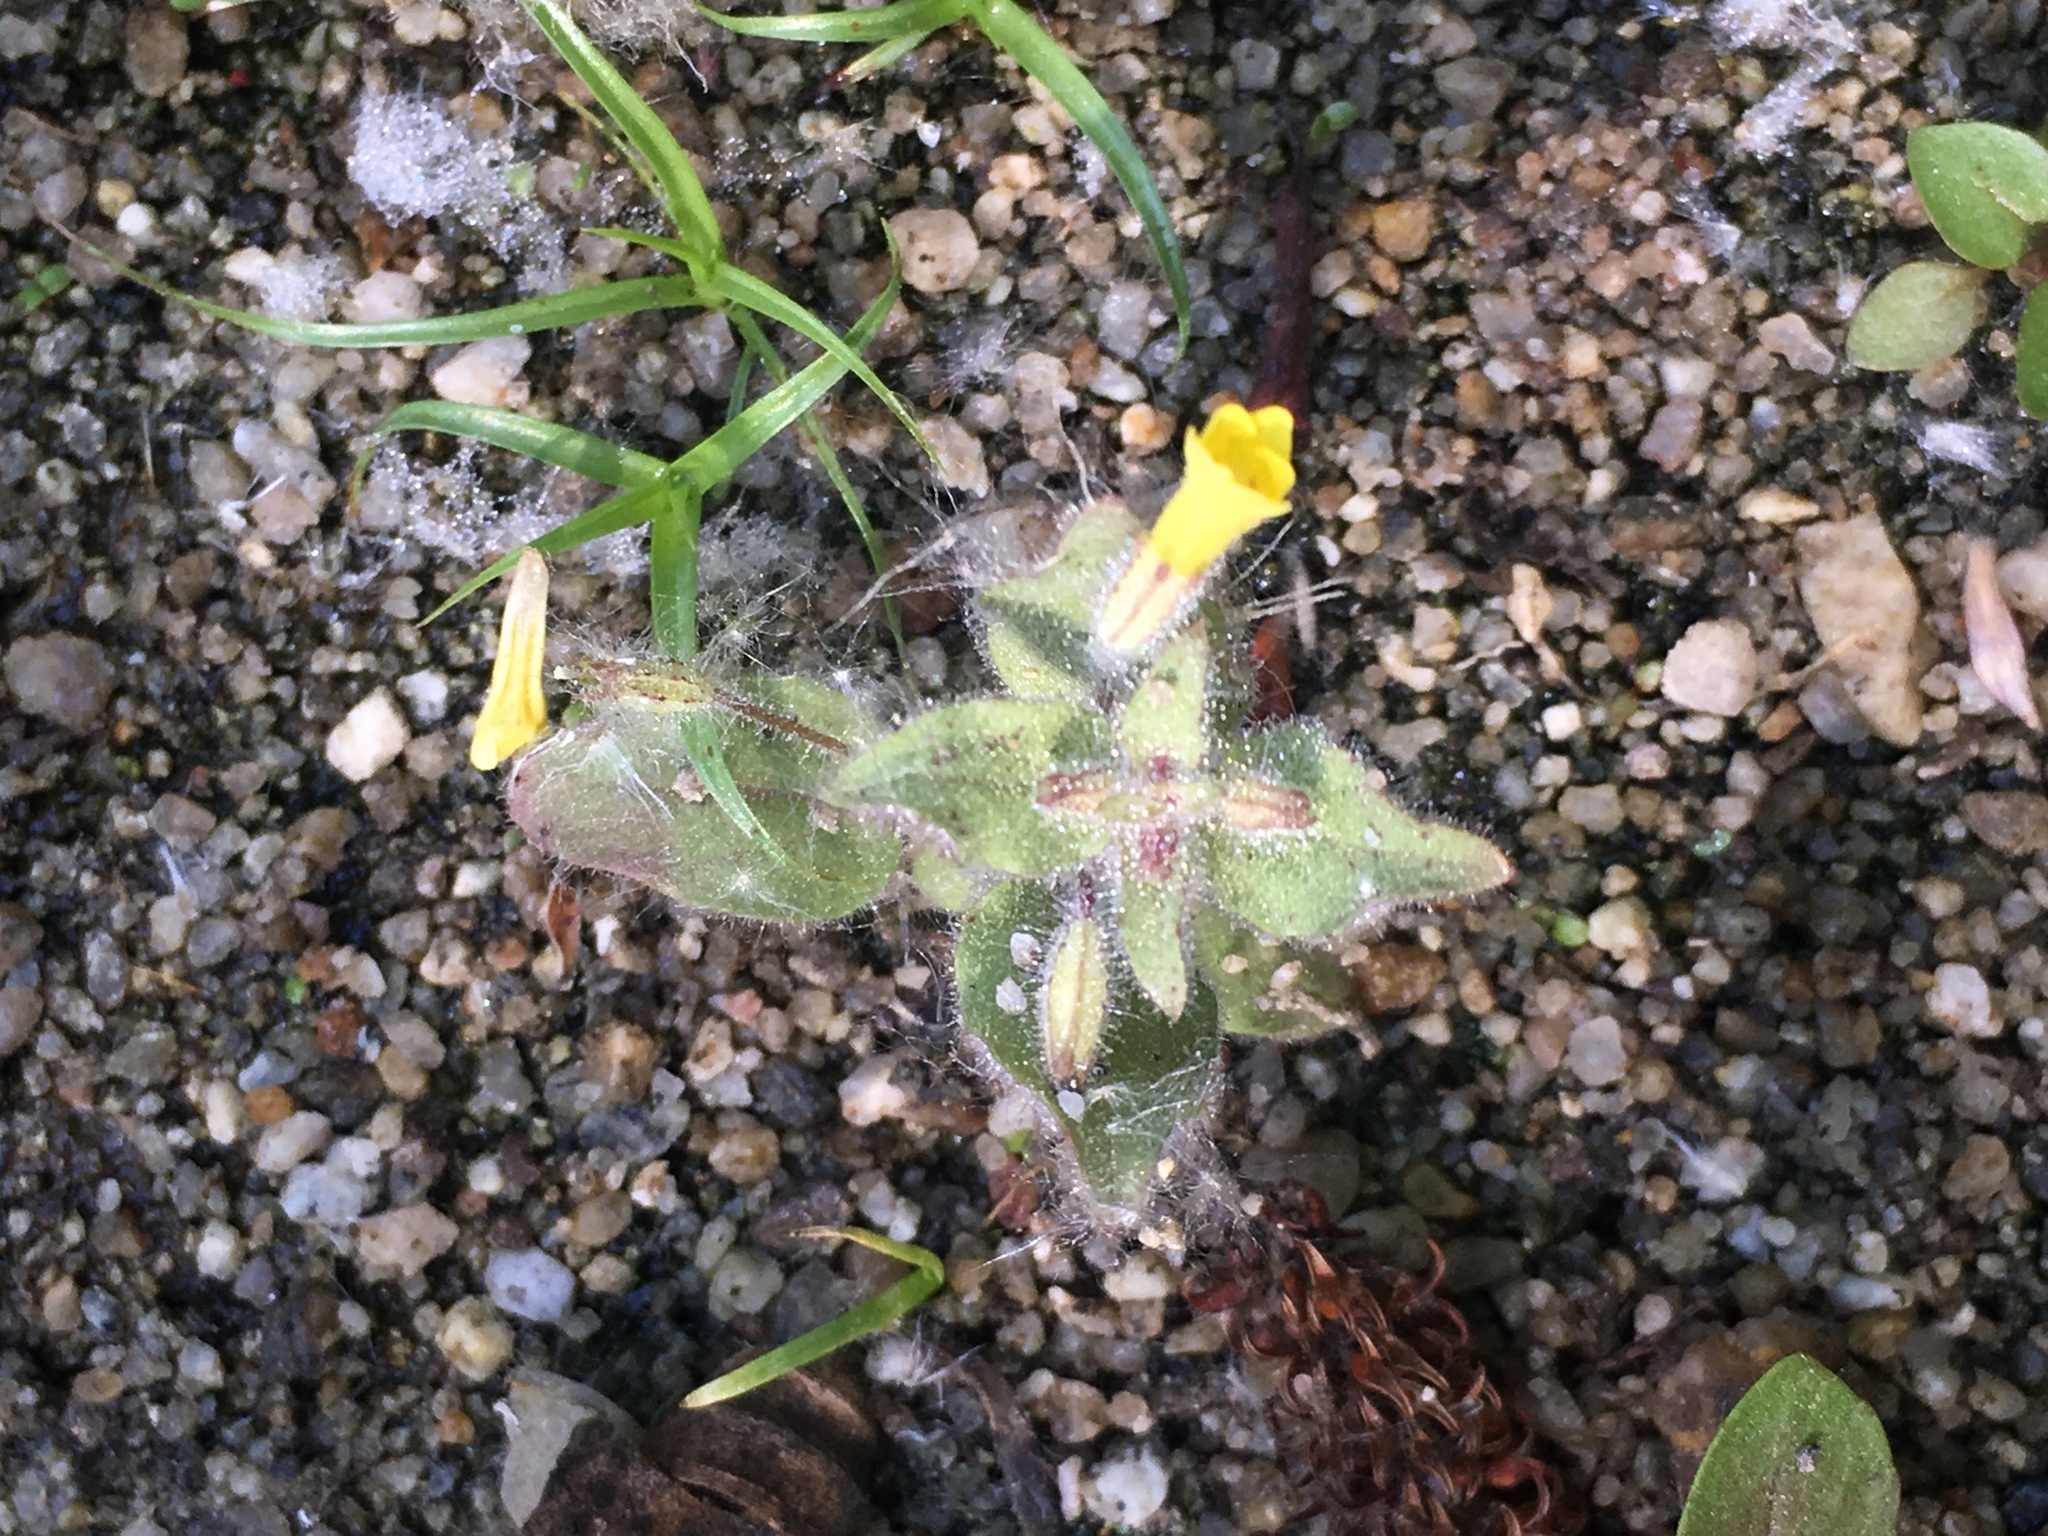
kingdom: Plantae
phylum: Tracheophyta
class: Magnoliopsida
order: Lamiales
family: Phrymaceae
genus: Erythranthe
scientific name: Erythranthe floribunda
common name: Floriferous monkeyflower
